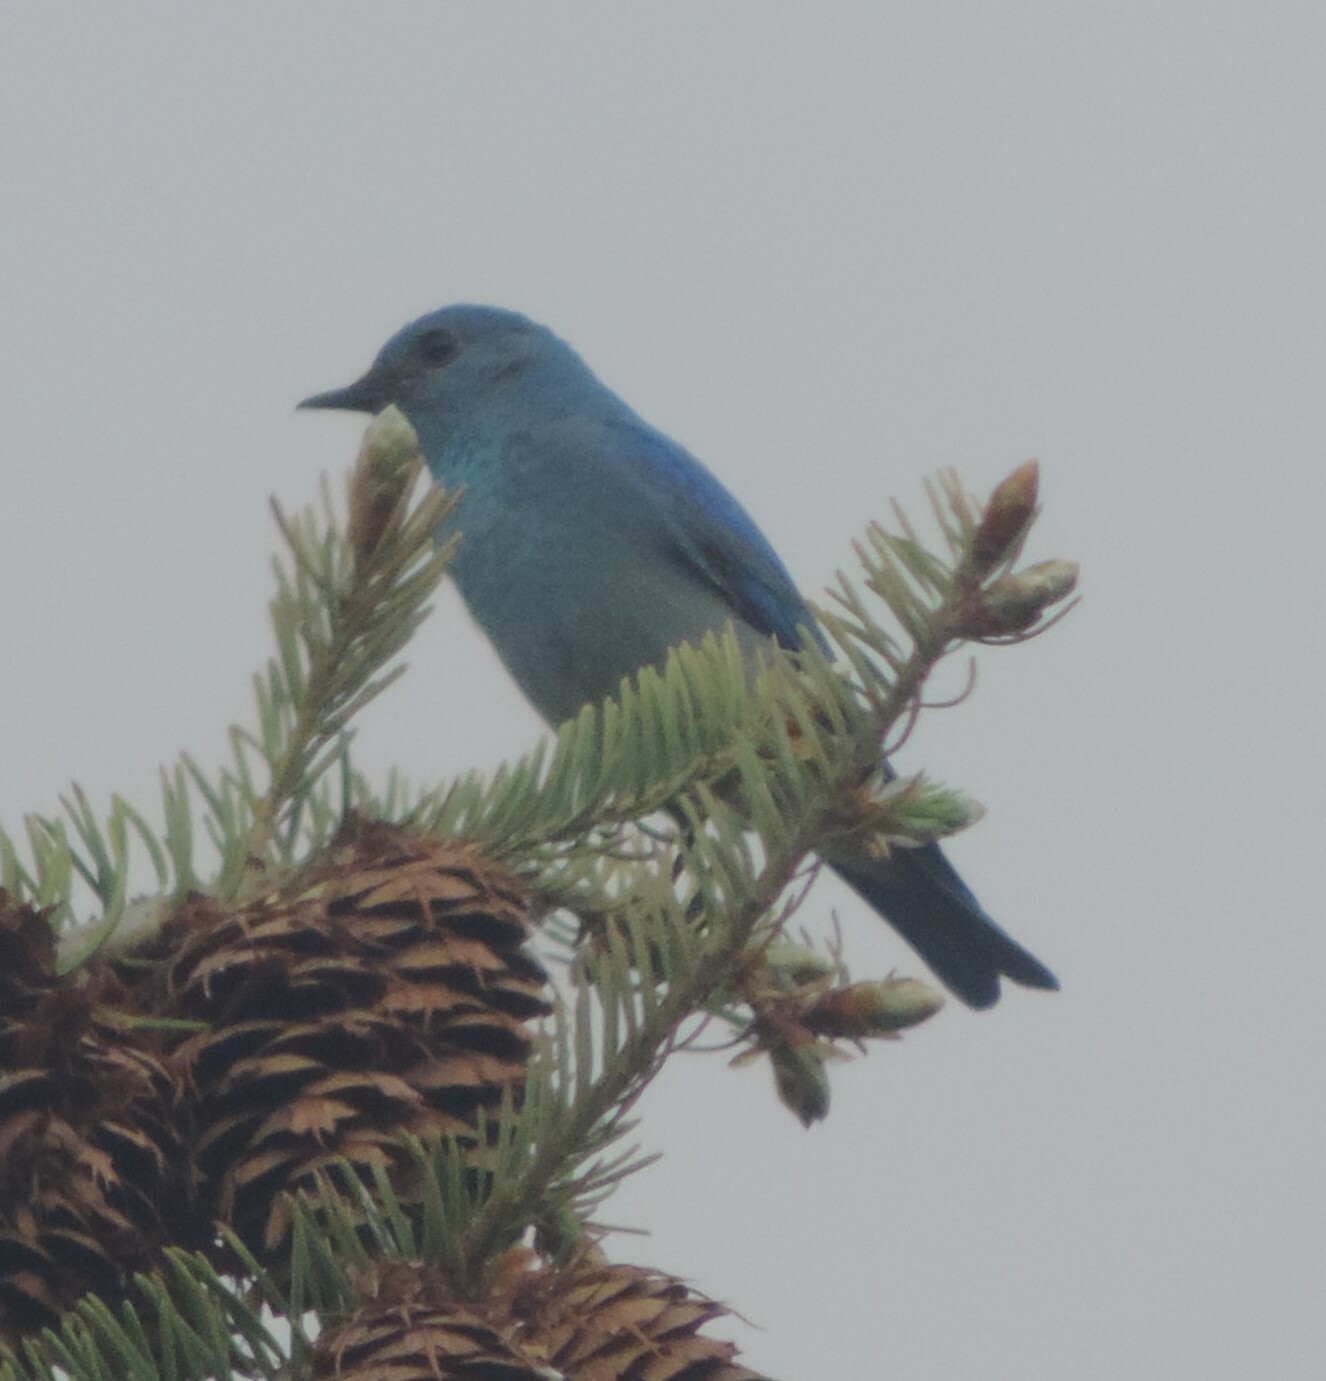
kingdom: Animalia
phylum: Chordata
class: Aves
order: Passeriformes
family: Turdidae
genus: Sialia
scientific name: Sialia currucoides
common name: Mountain bluebird
